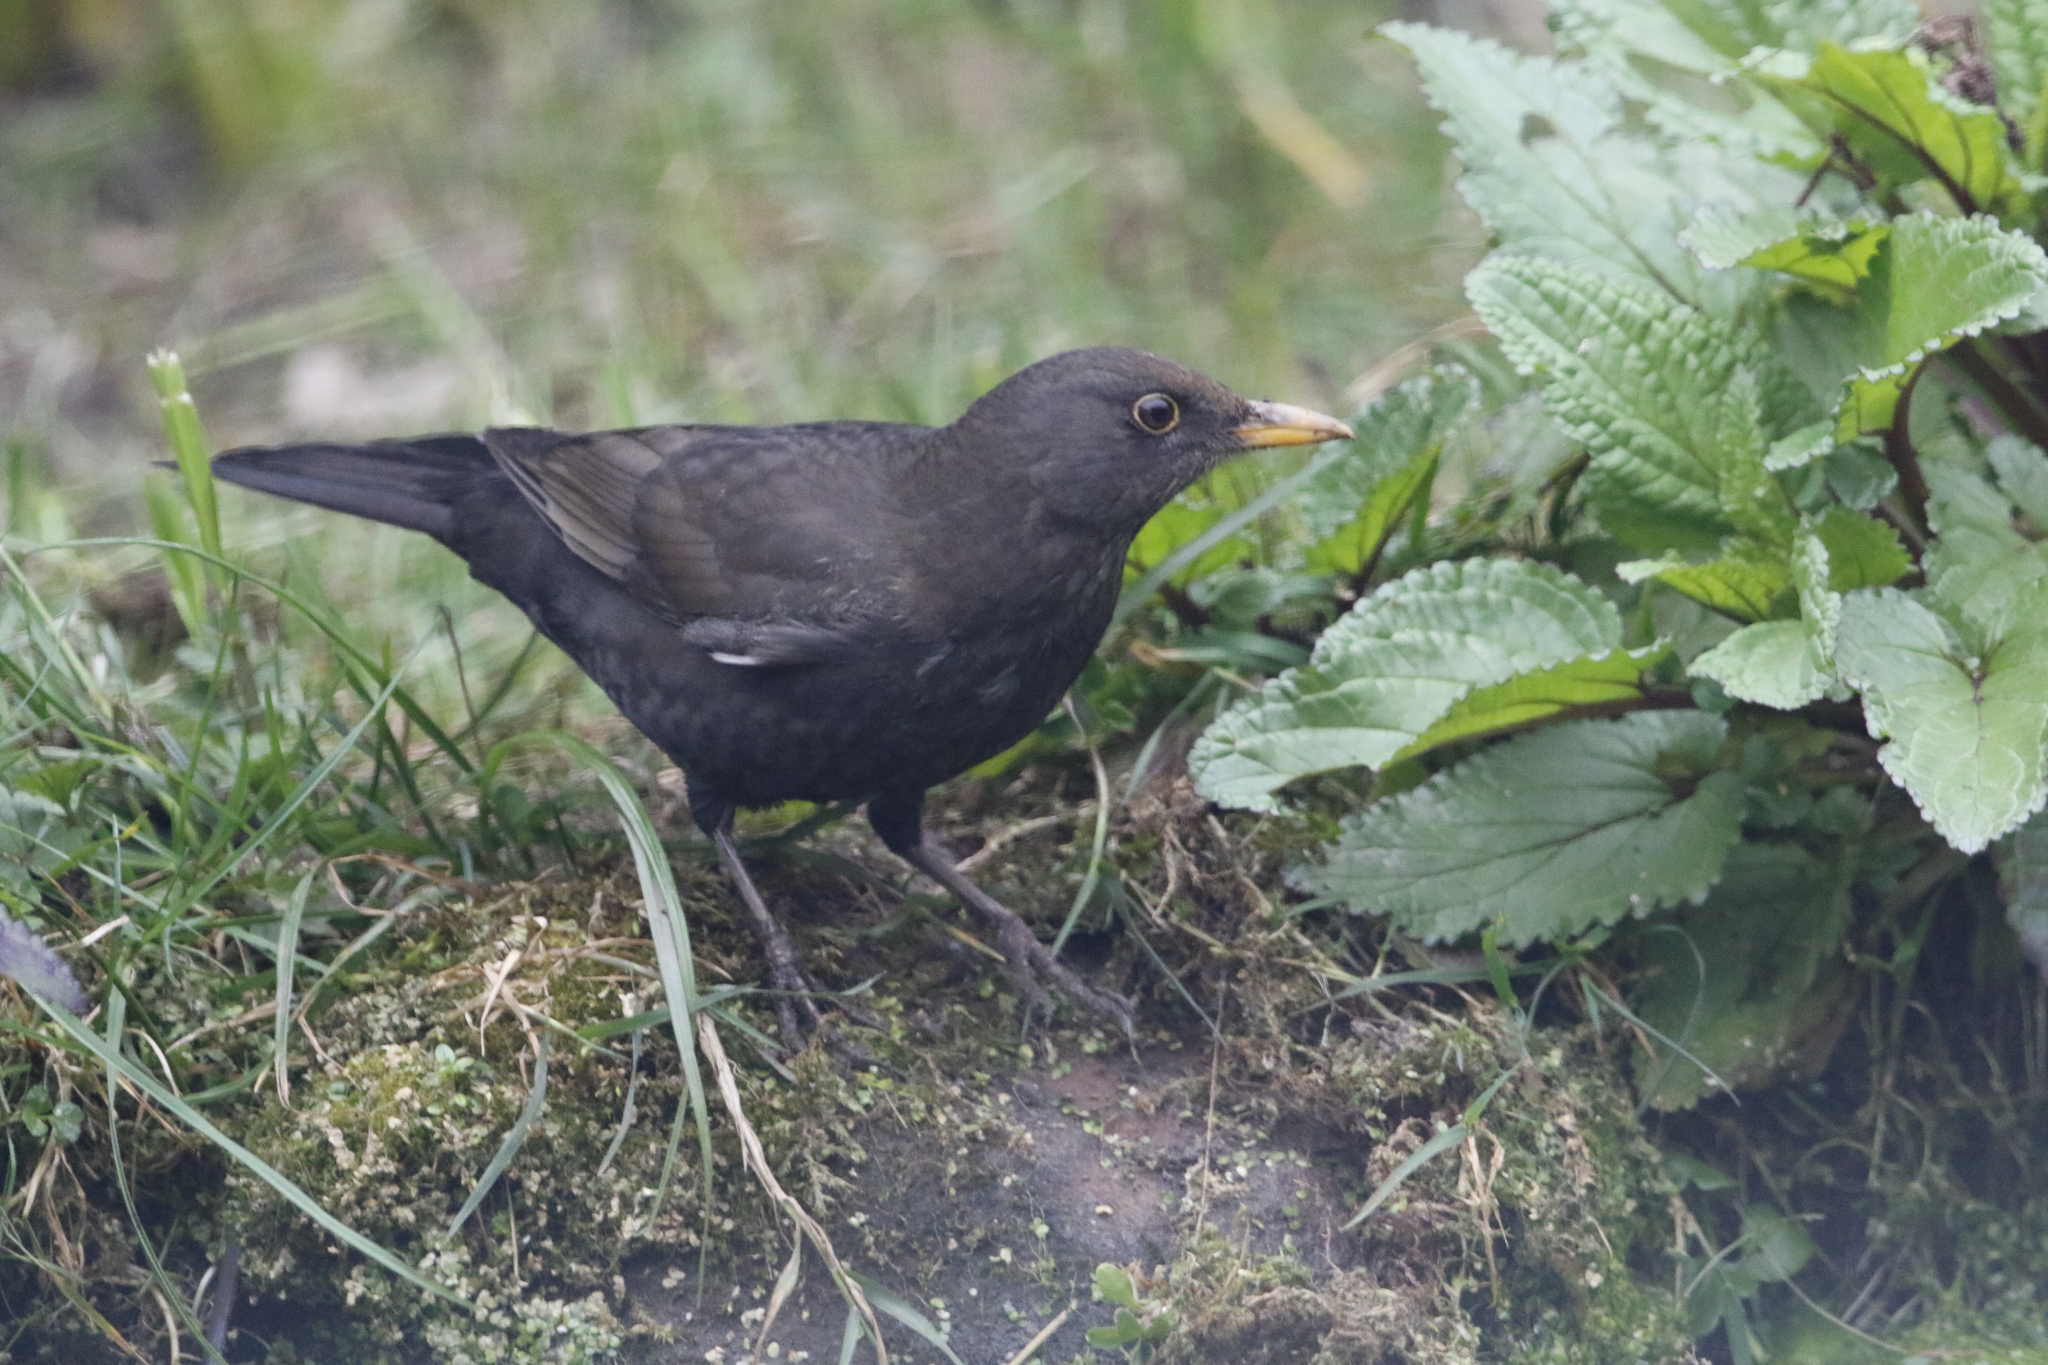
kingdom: Animalia
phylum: Chordata
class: Aves
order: Passeriformes
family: Turdidae
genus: Turdus
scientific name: Turdus merula
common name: Common blackbird
